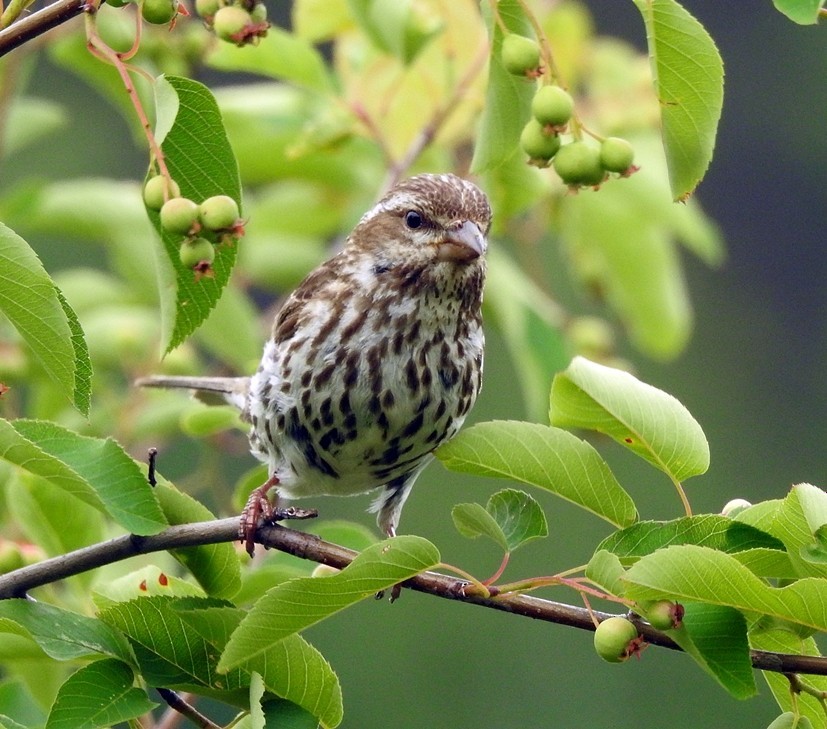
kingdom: Animalia
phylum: Chordata
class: Aves
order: Passeriformes
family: Fringillidae
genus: Haemorhous
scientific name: Haemorhous purpureus
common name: Purple finch
